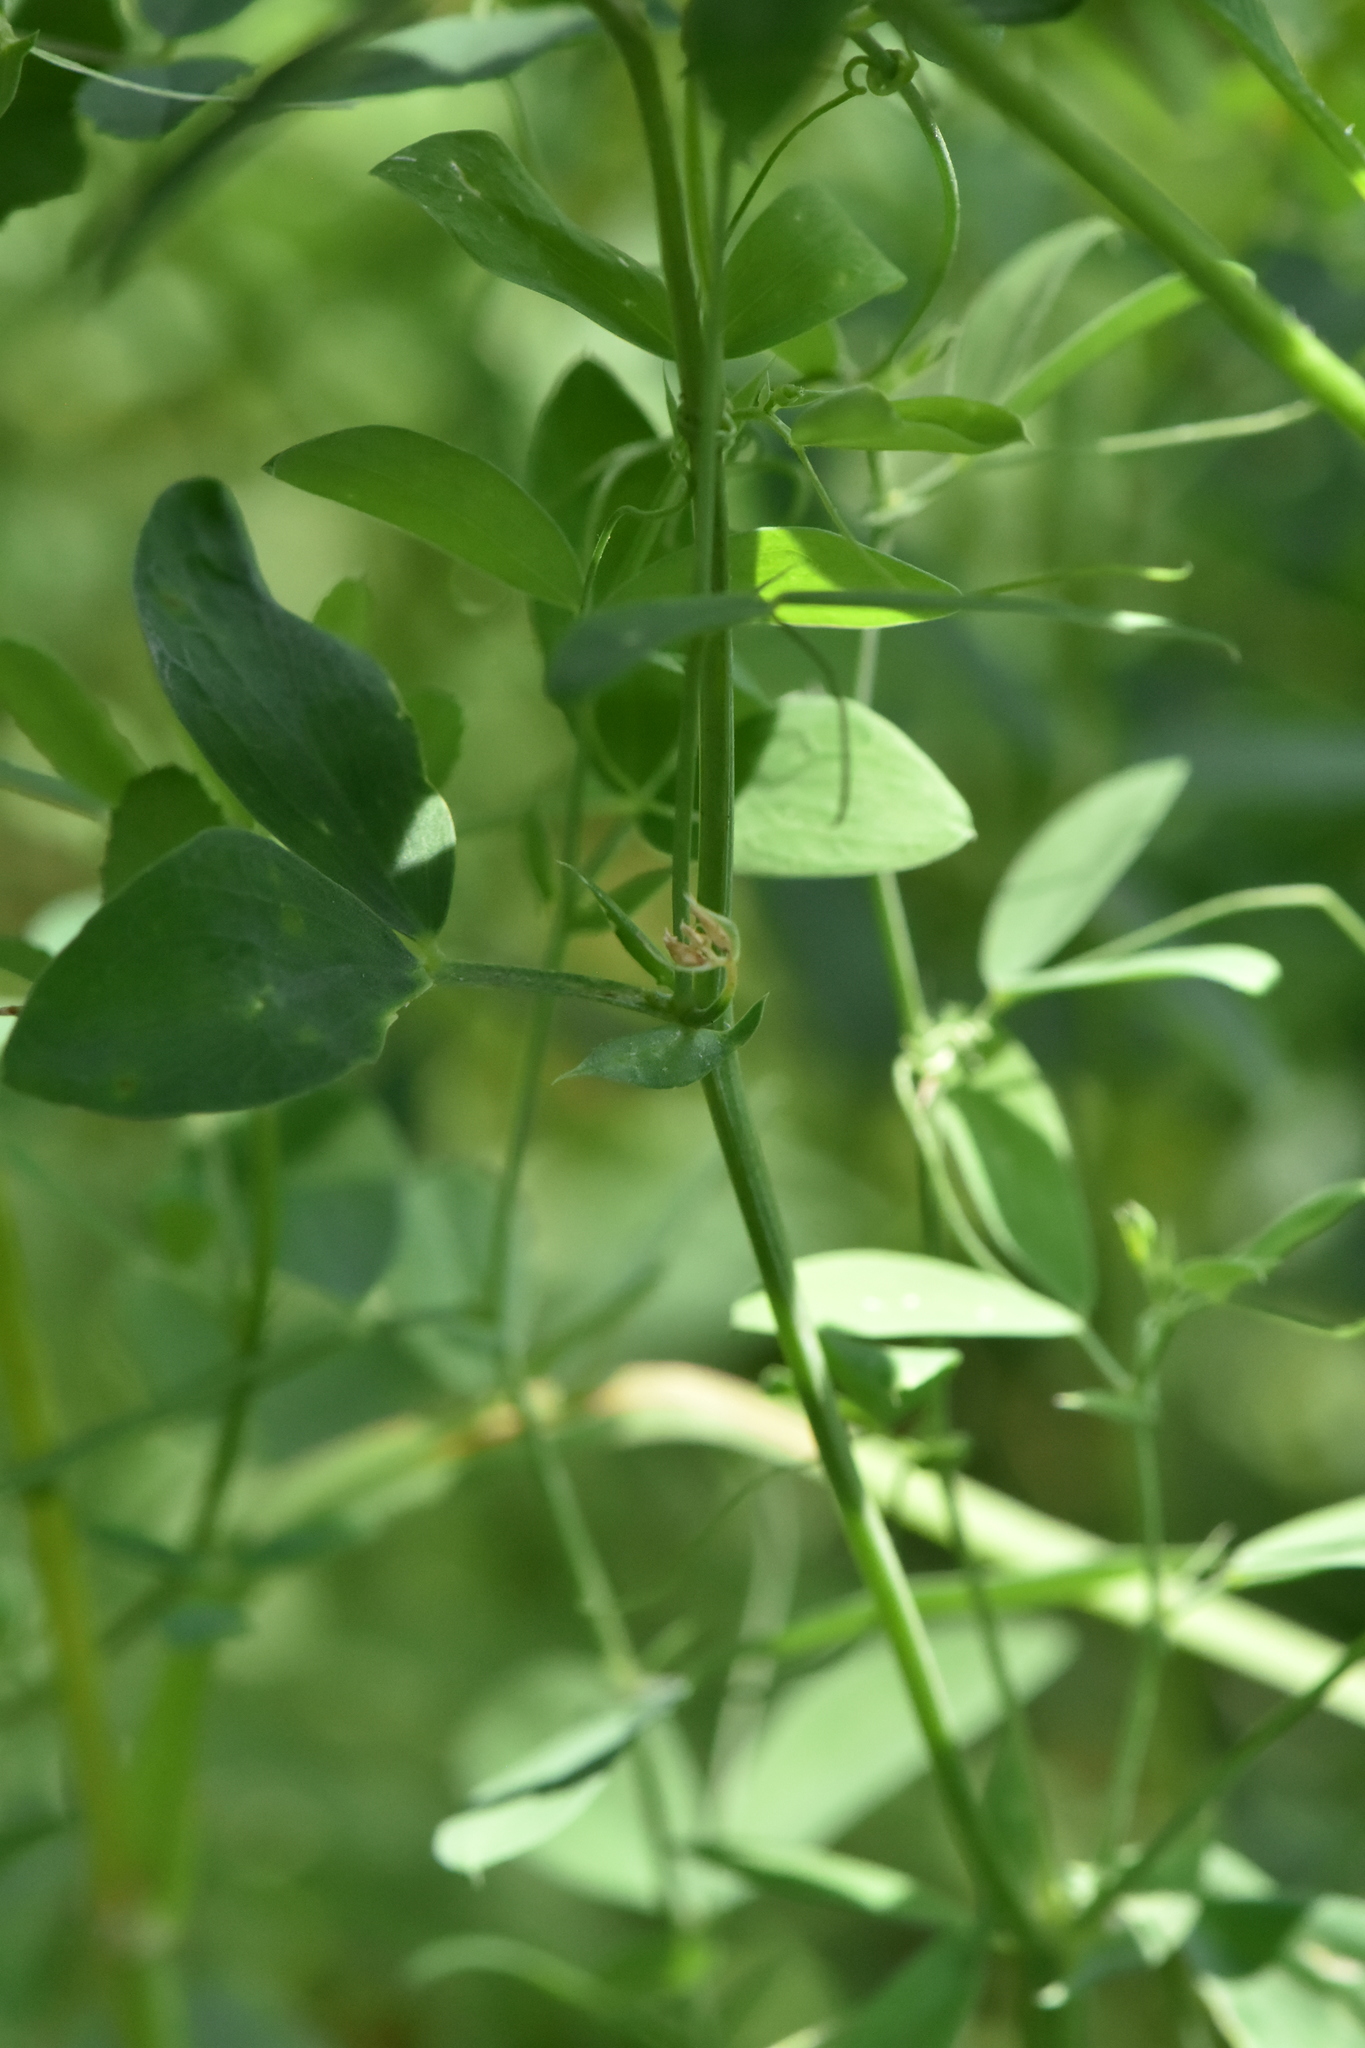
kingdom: Plantae
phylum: Tracheophyta
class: Magnoliopsida
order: Fabales
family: Fabaceae
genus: Lathyrus
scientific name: Lathyrus tuberosus
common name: Tuberous pea
